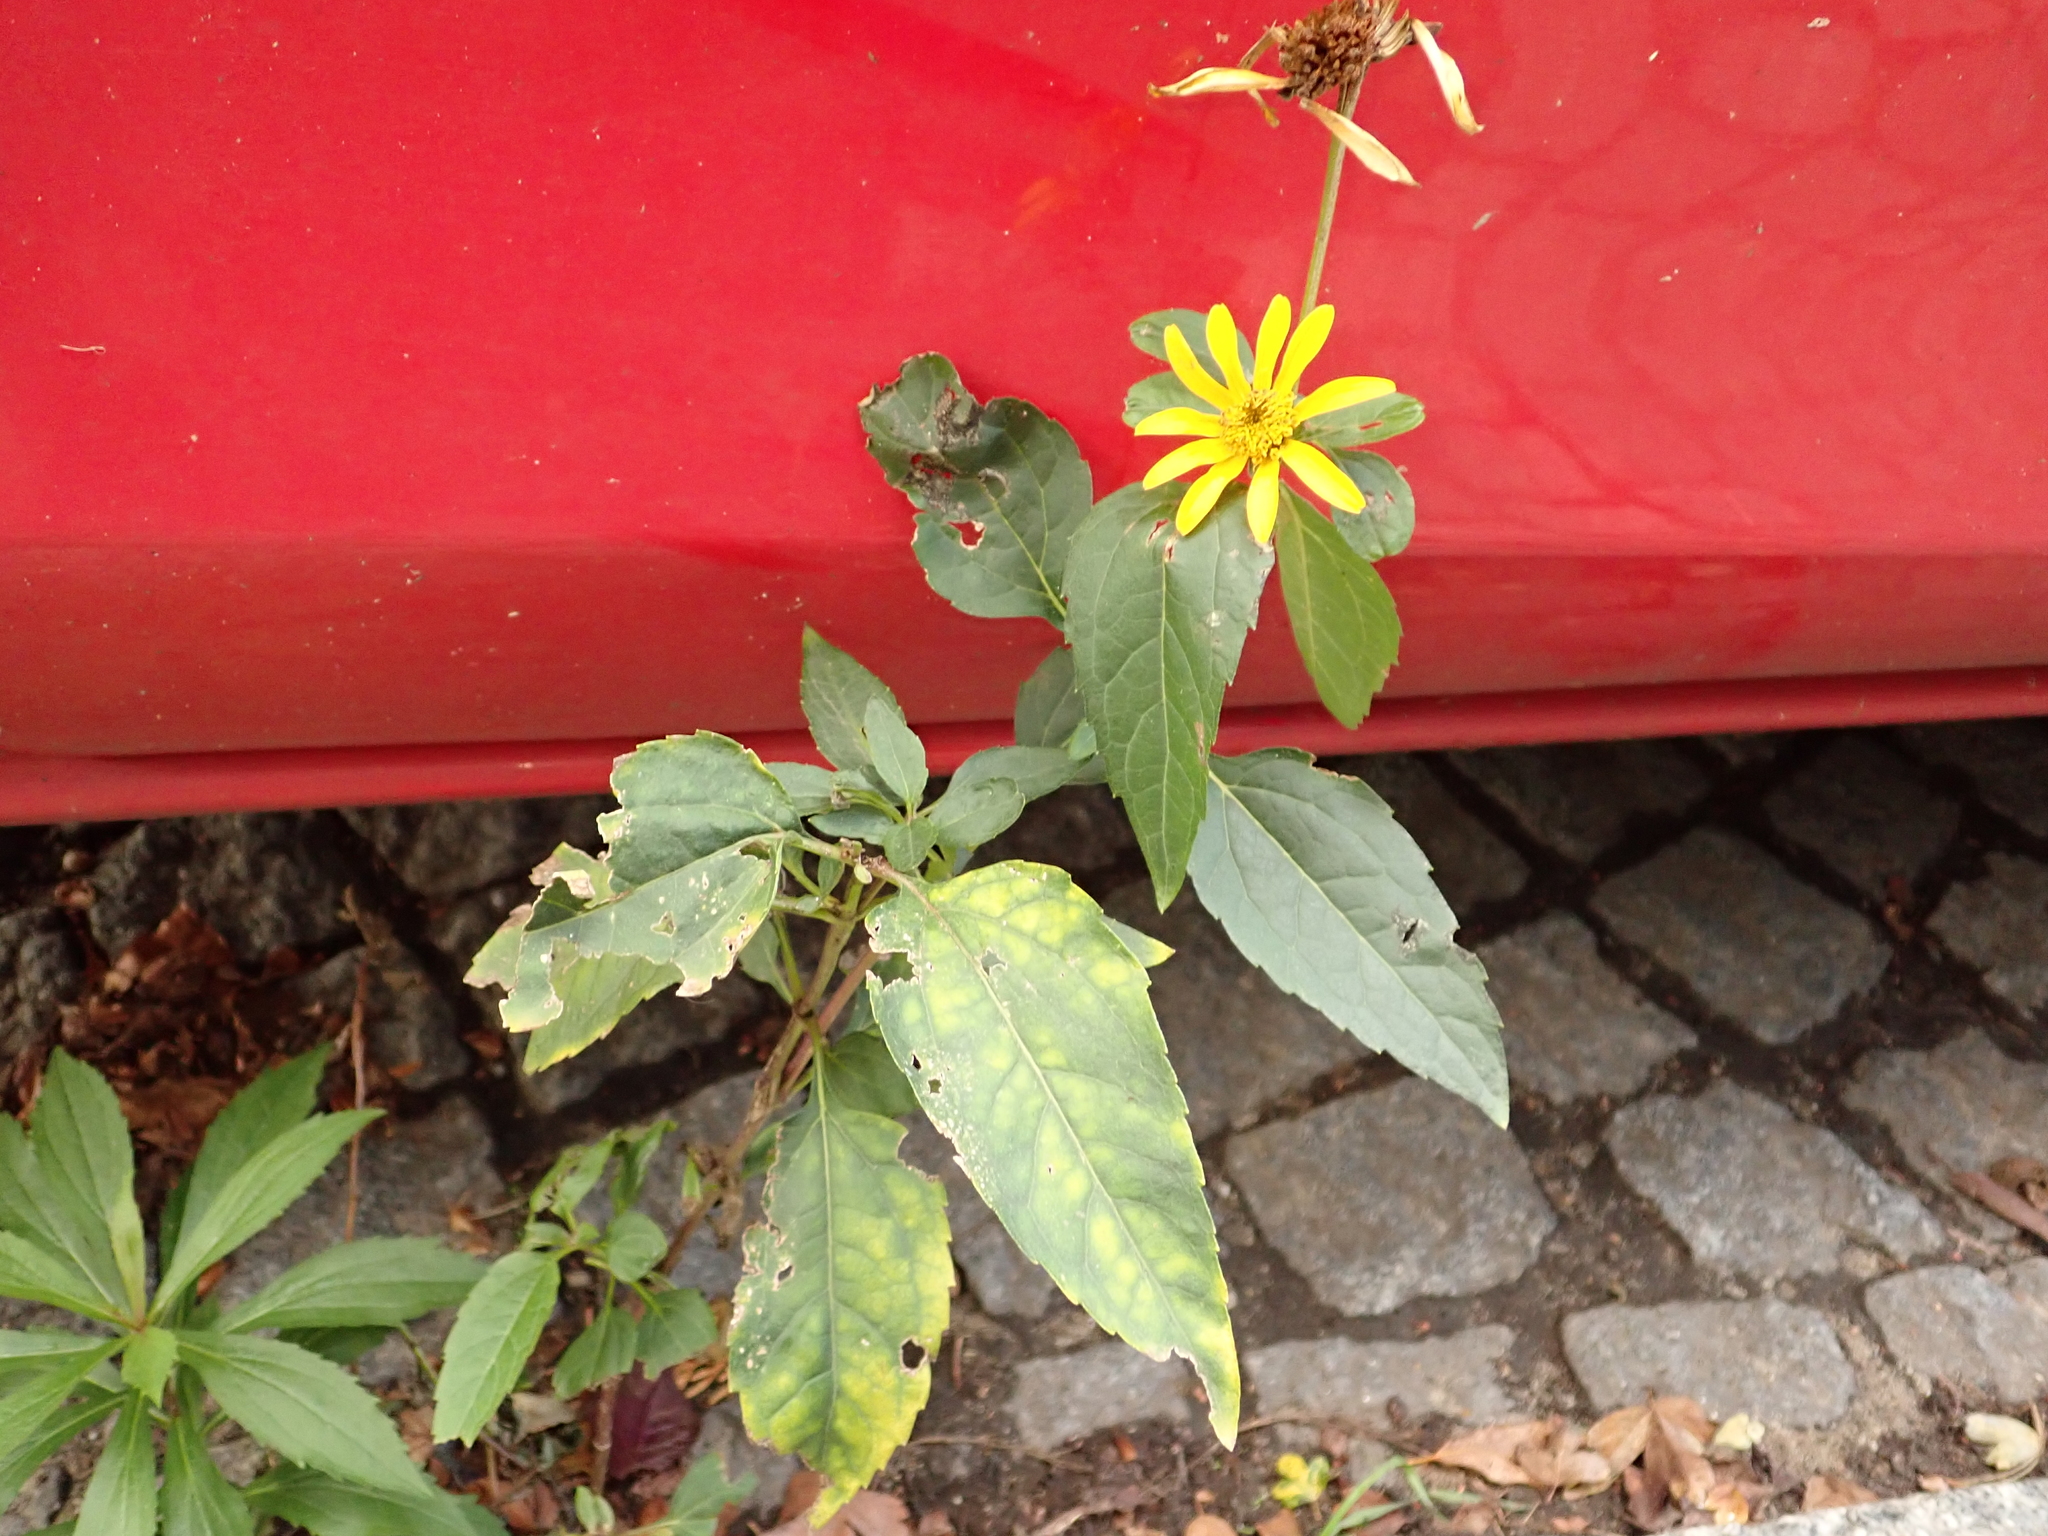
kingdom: Plantae
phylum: Tracheophyta
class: Magnoliopsida
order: Asterales
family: Asteraceae
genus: Helianthus
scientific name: Helianthus tuberosus
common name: Jerusalem artichoke
